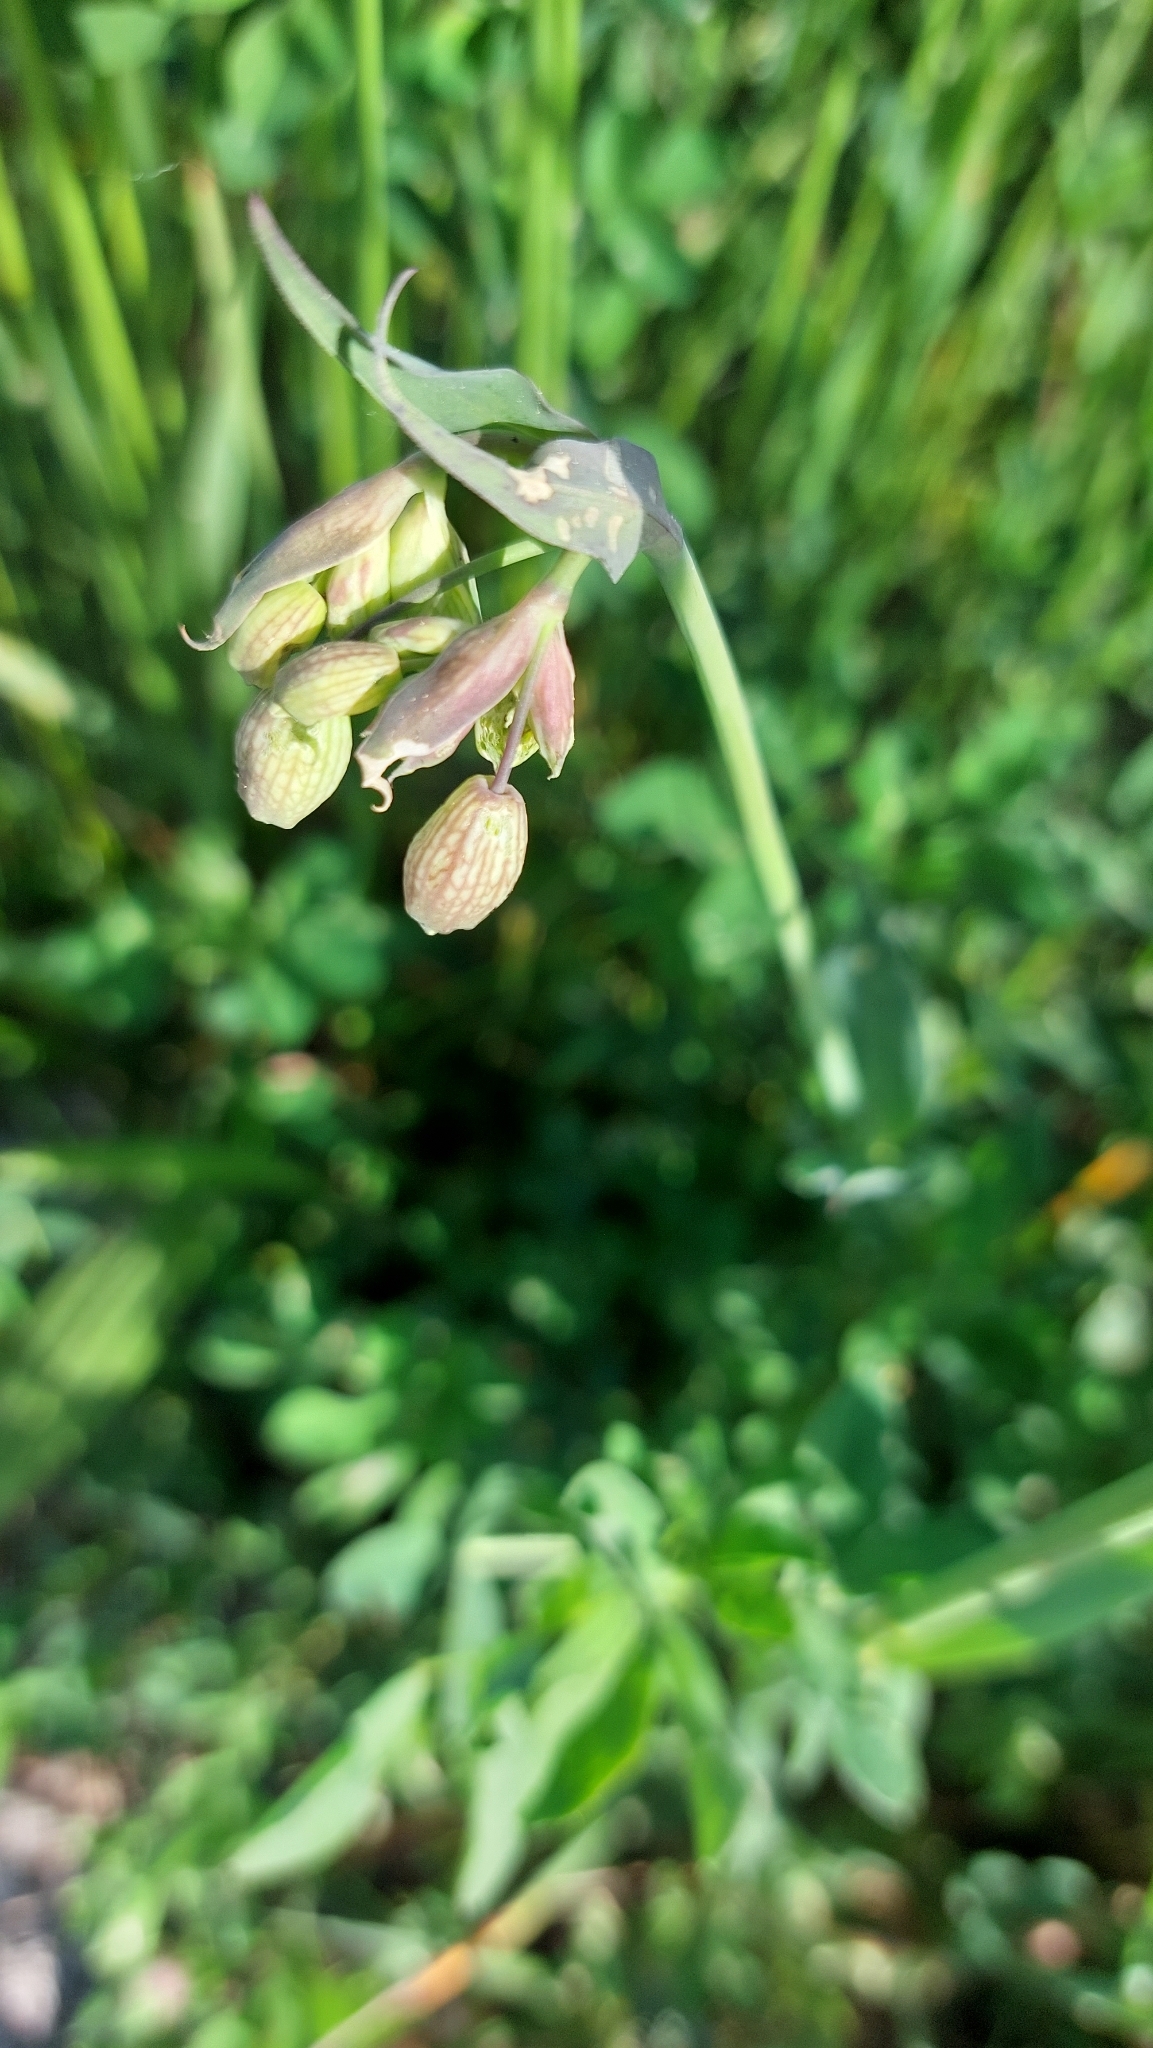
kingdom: Plantae
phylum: Tracheophyta
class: Magnoliopsida
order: Caryophyllales
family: Caryophyllaceae
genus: Silene
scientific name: Silene vulgaris
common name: Bladder campion
